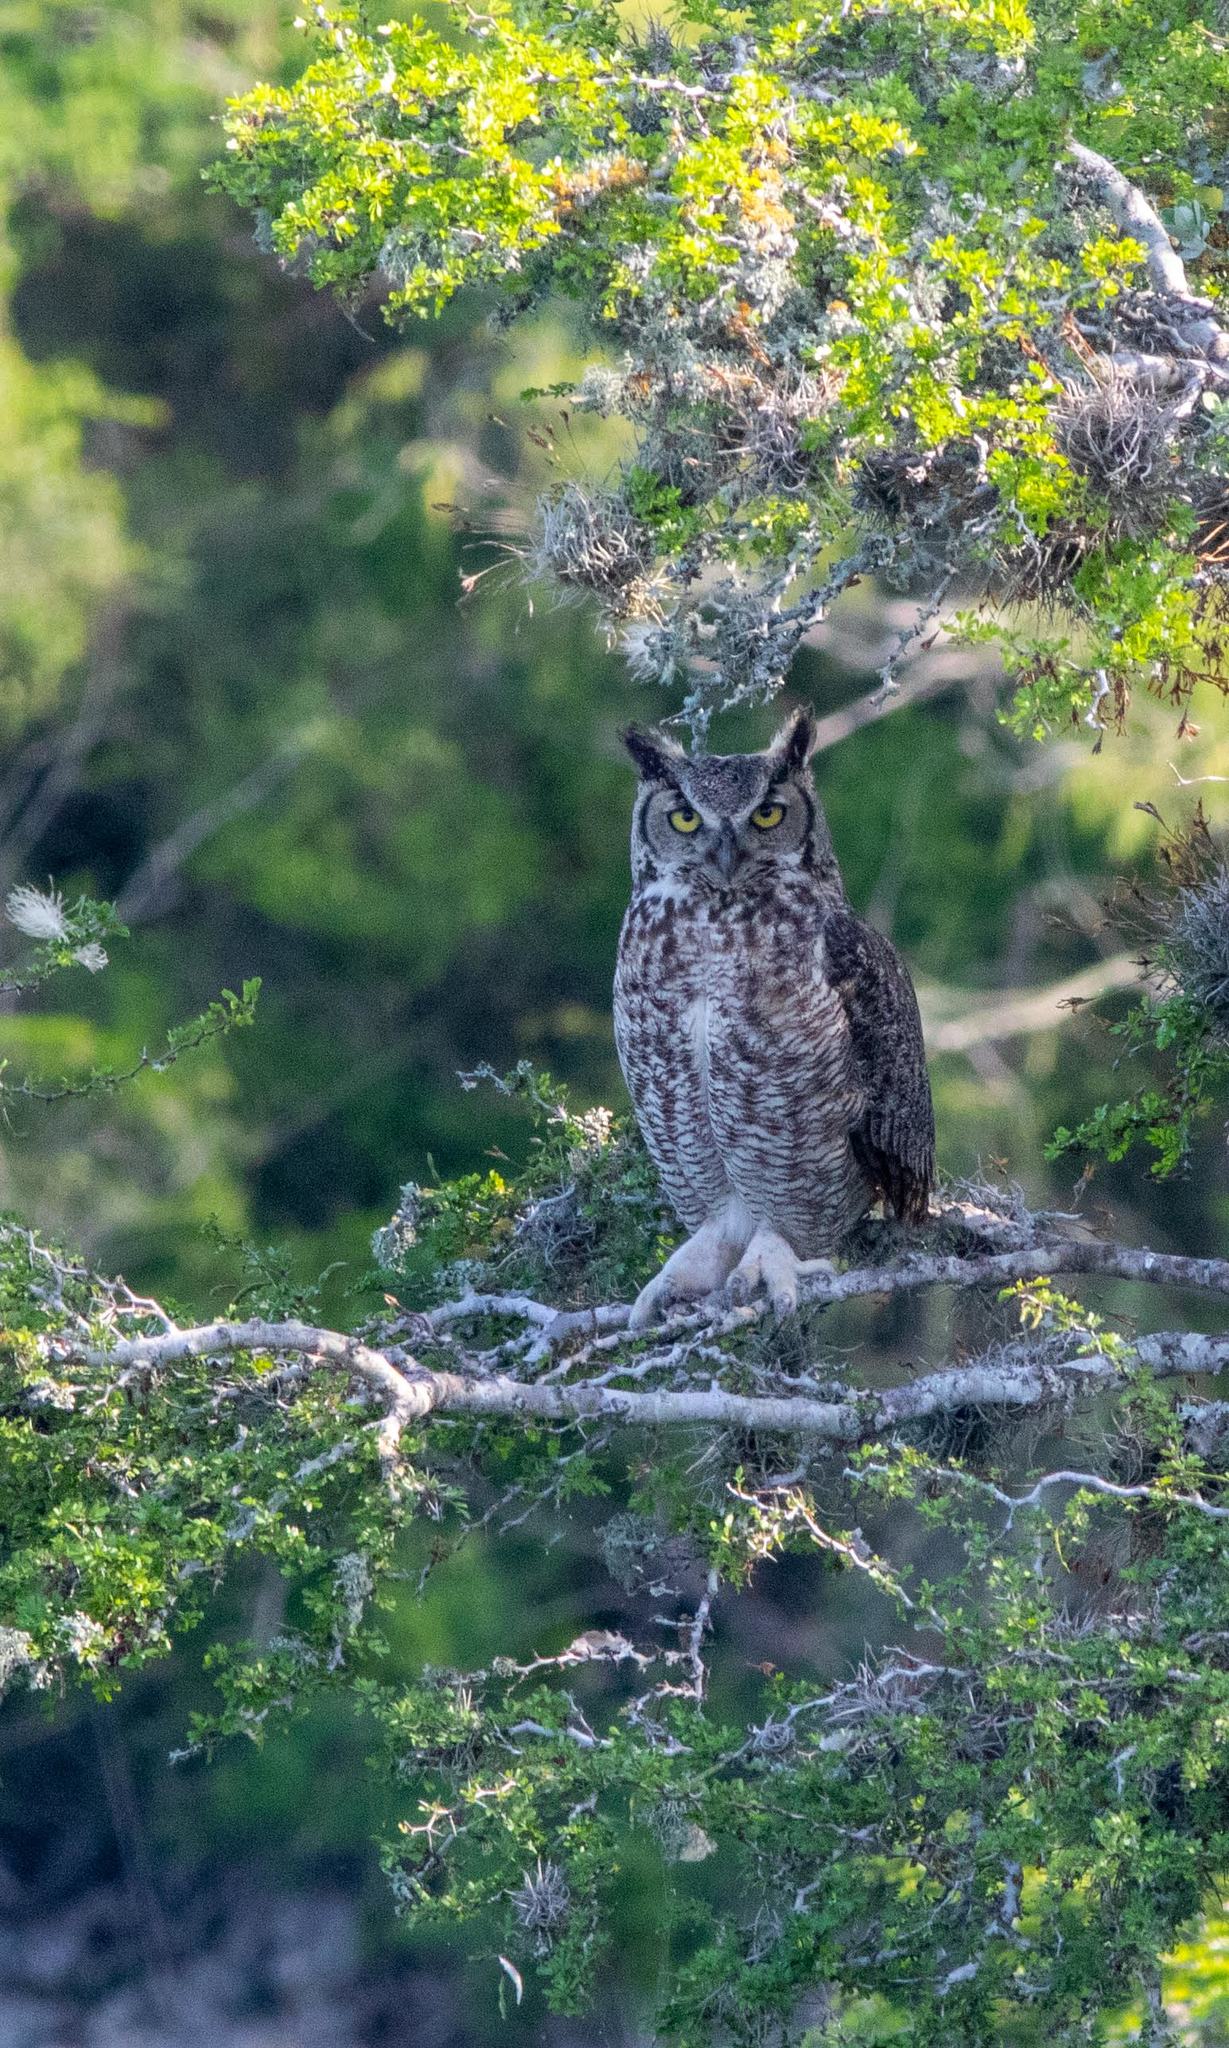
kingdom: Animalia
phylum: Chordata
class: Aves
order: Strigiformes
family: Strigidae
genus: Bubo
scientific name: Bubo virginianus
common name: Great horned owl
